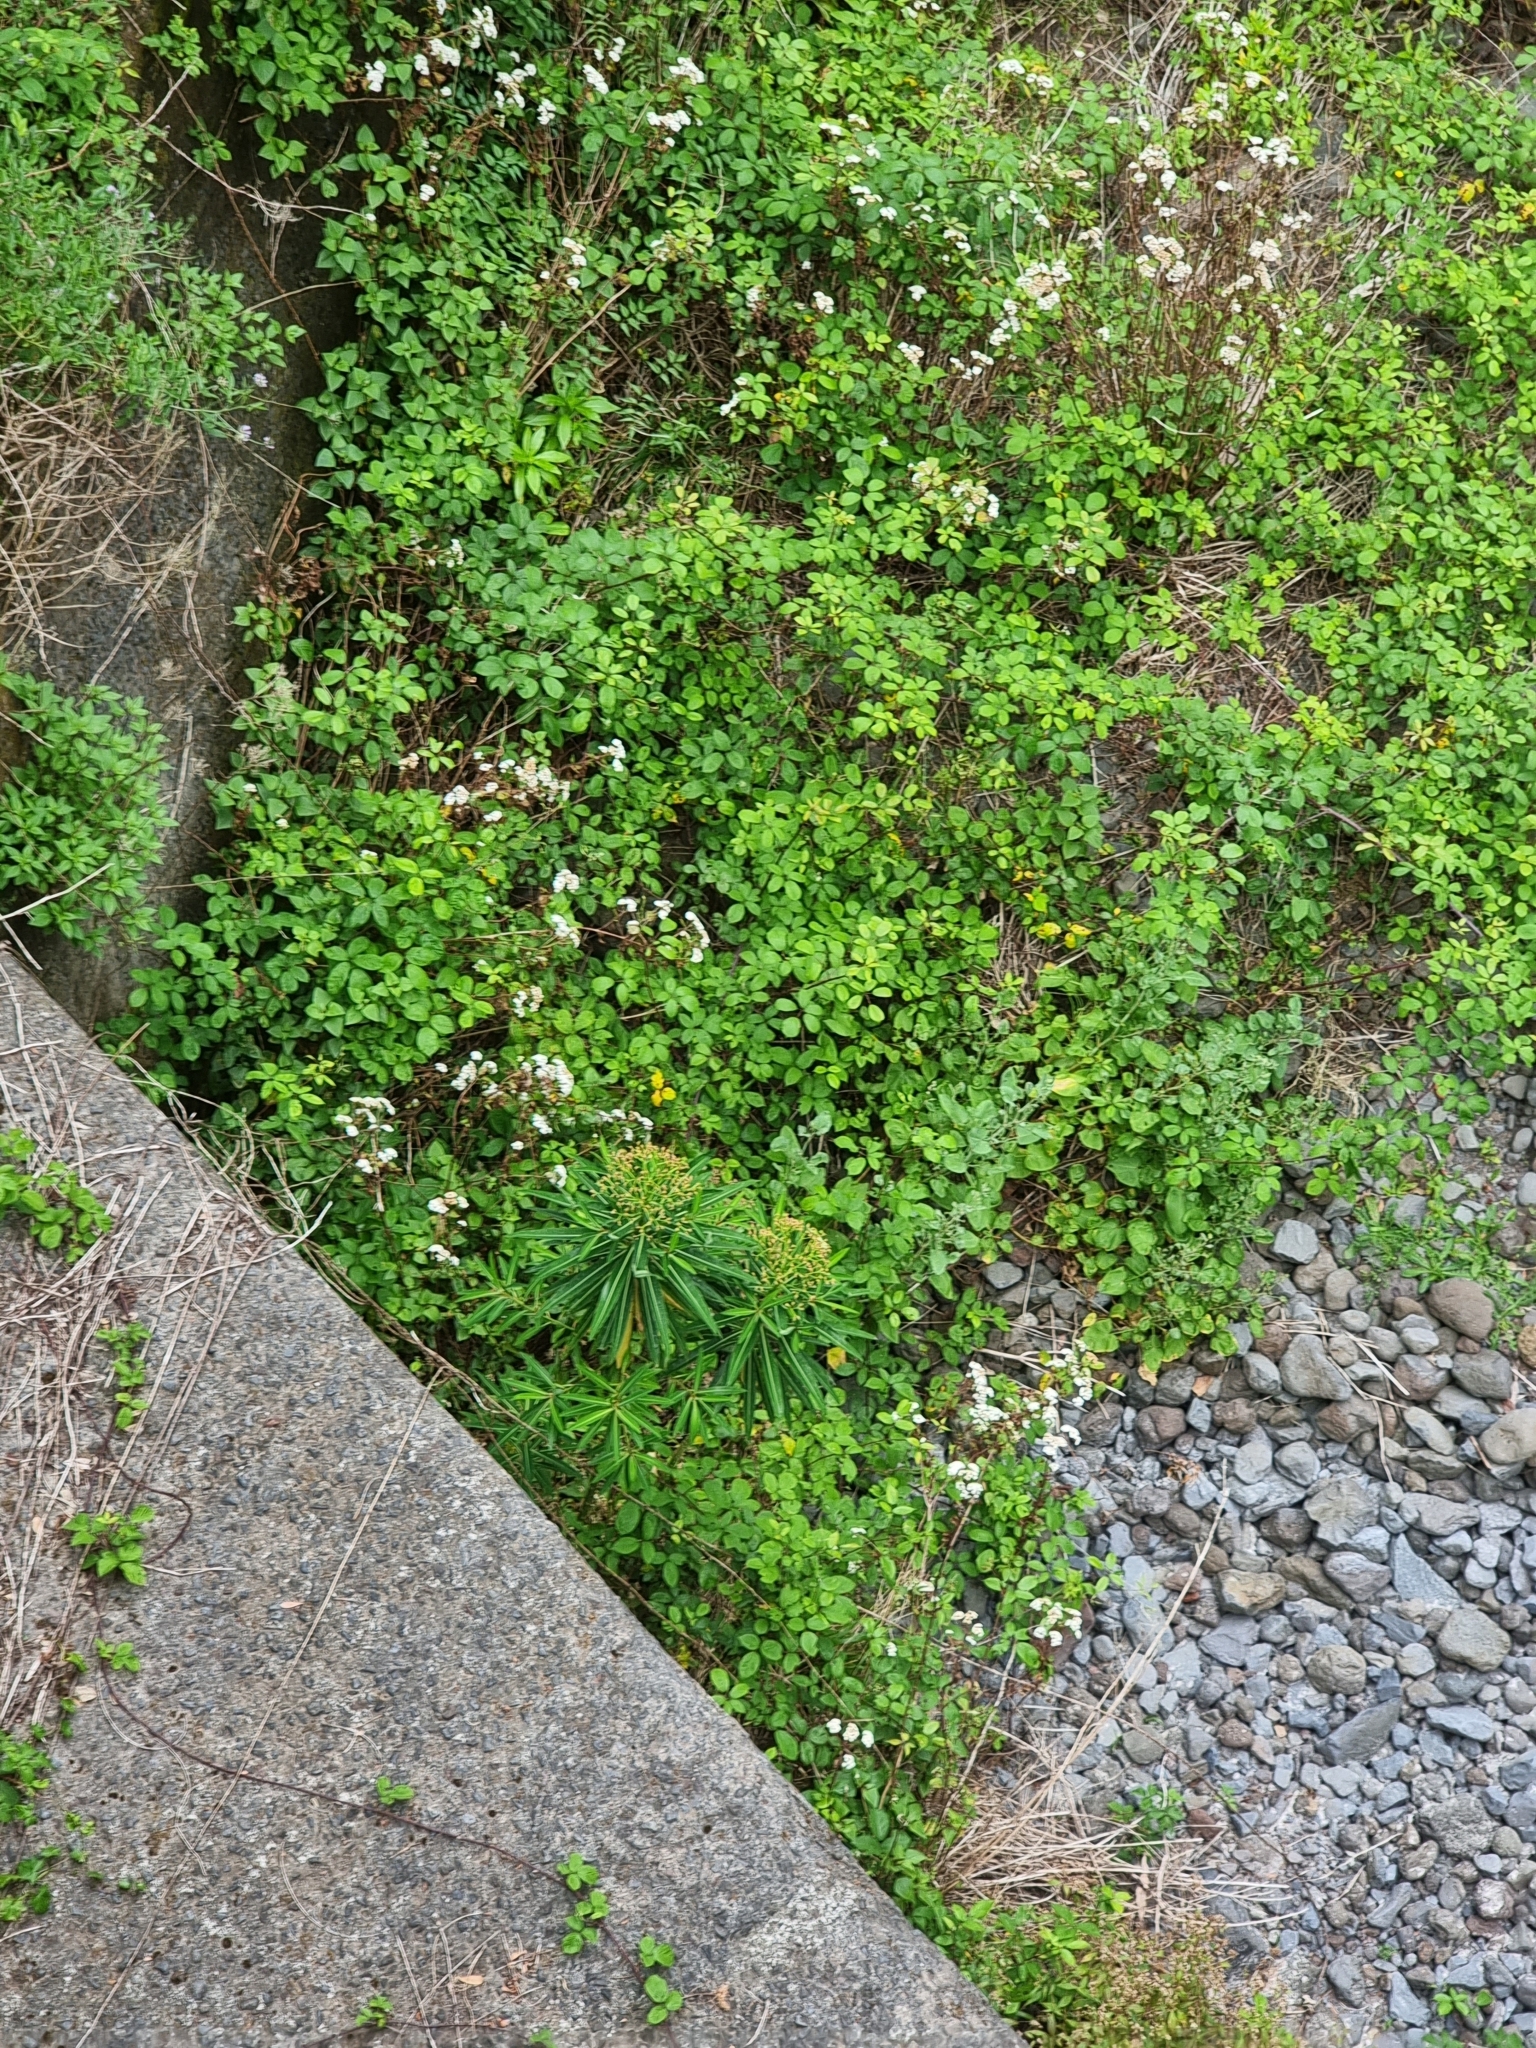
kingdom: Plantae
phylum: Tracheophyta
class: Magnoliopsida
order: Malpighiales
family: Euphorbiaceae
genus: Euphorbia
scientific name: Euphorbia mellifera
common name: Canary spurge
